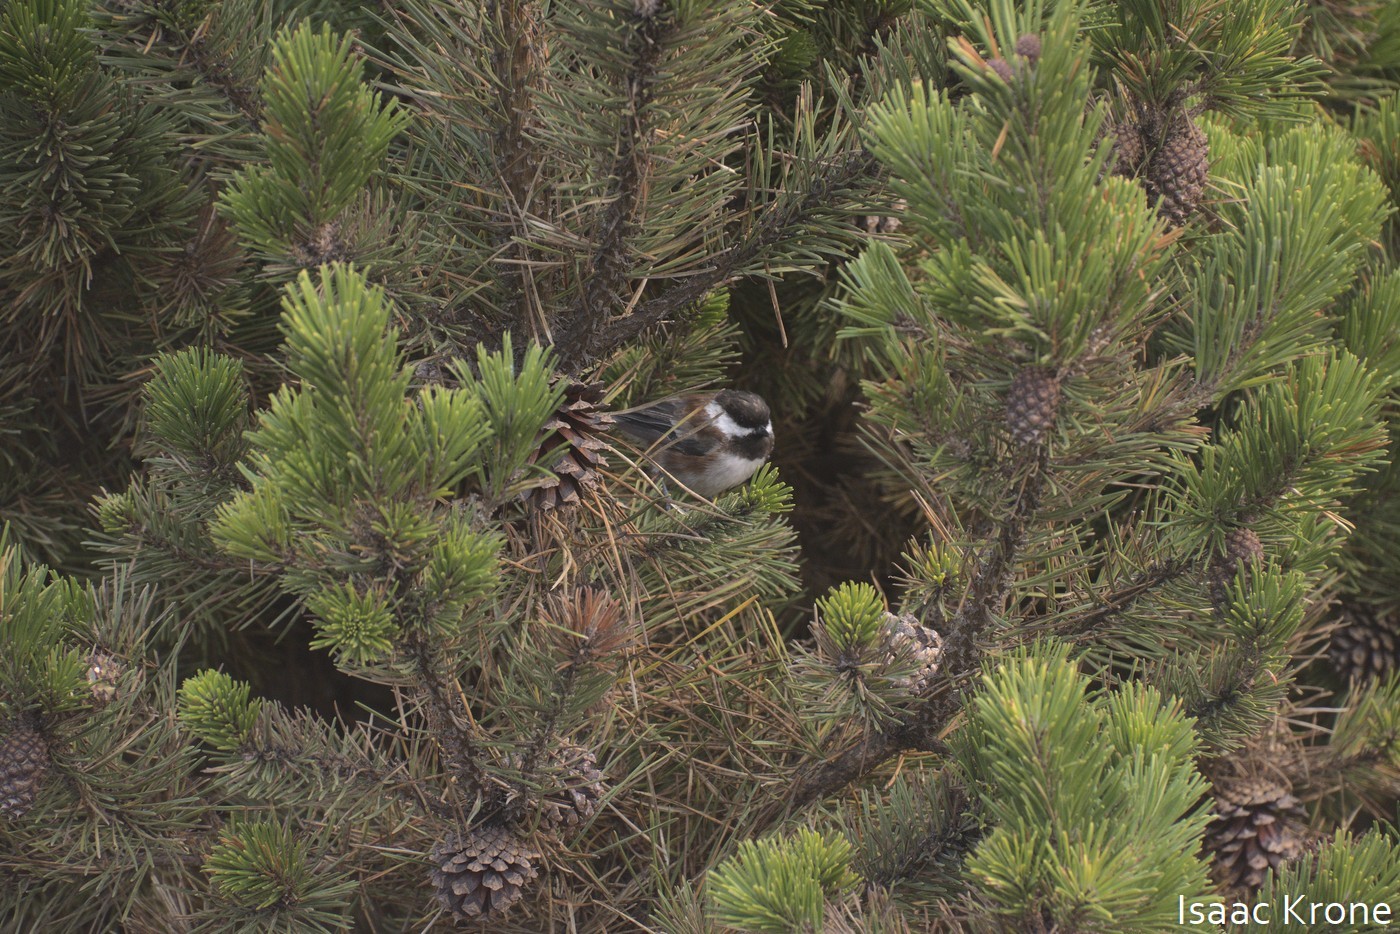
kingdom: Animalia
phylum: Chordata
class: Aves
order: Passeriformes
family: Paridae
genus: Poecile
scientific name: Poecile rufescens
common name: Chestnut-backed chickadee
